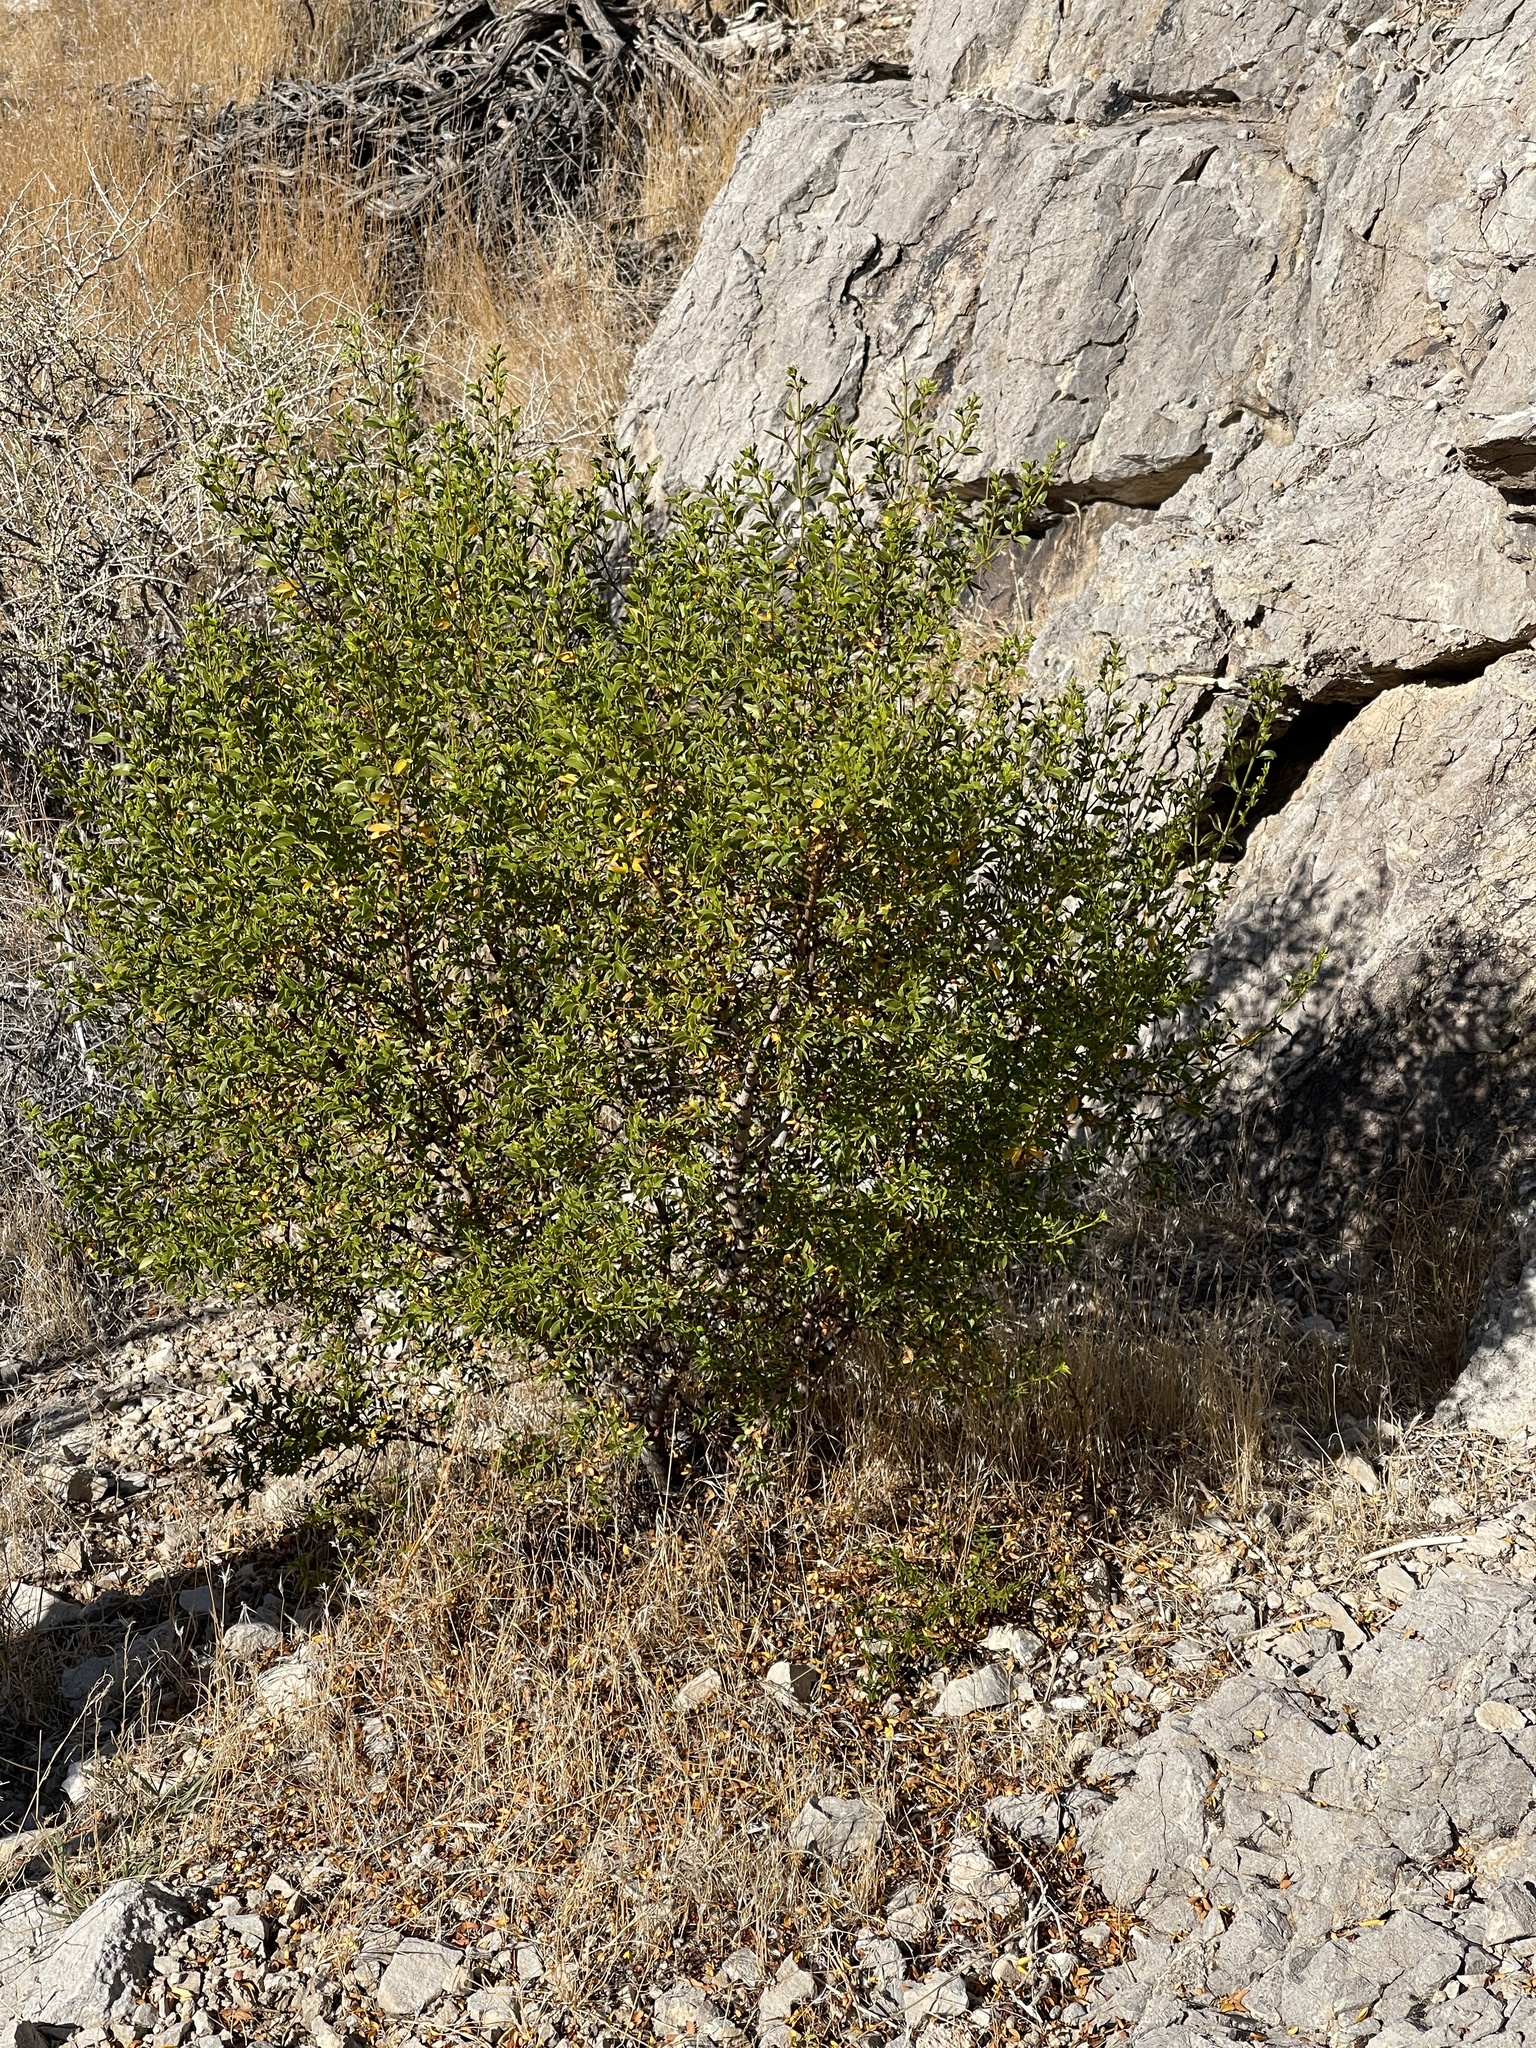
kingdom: Plantae
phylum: Tracheophyta
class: Magnoliopsida
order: Zygophyllales
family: Zygophyllaceae
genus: Larrea
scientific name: Larrea tridentata
